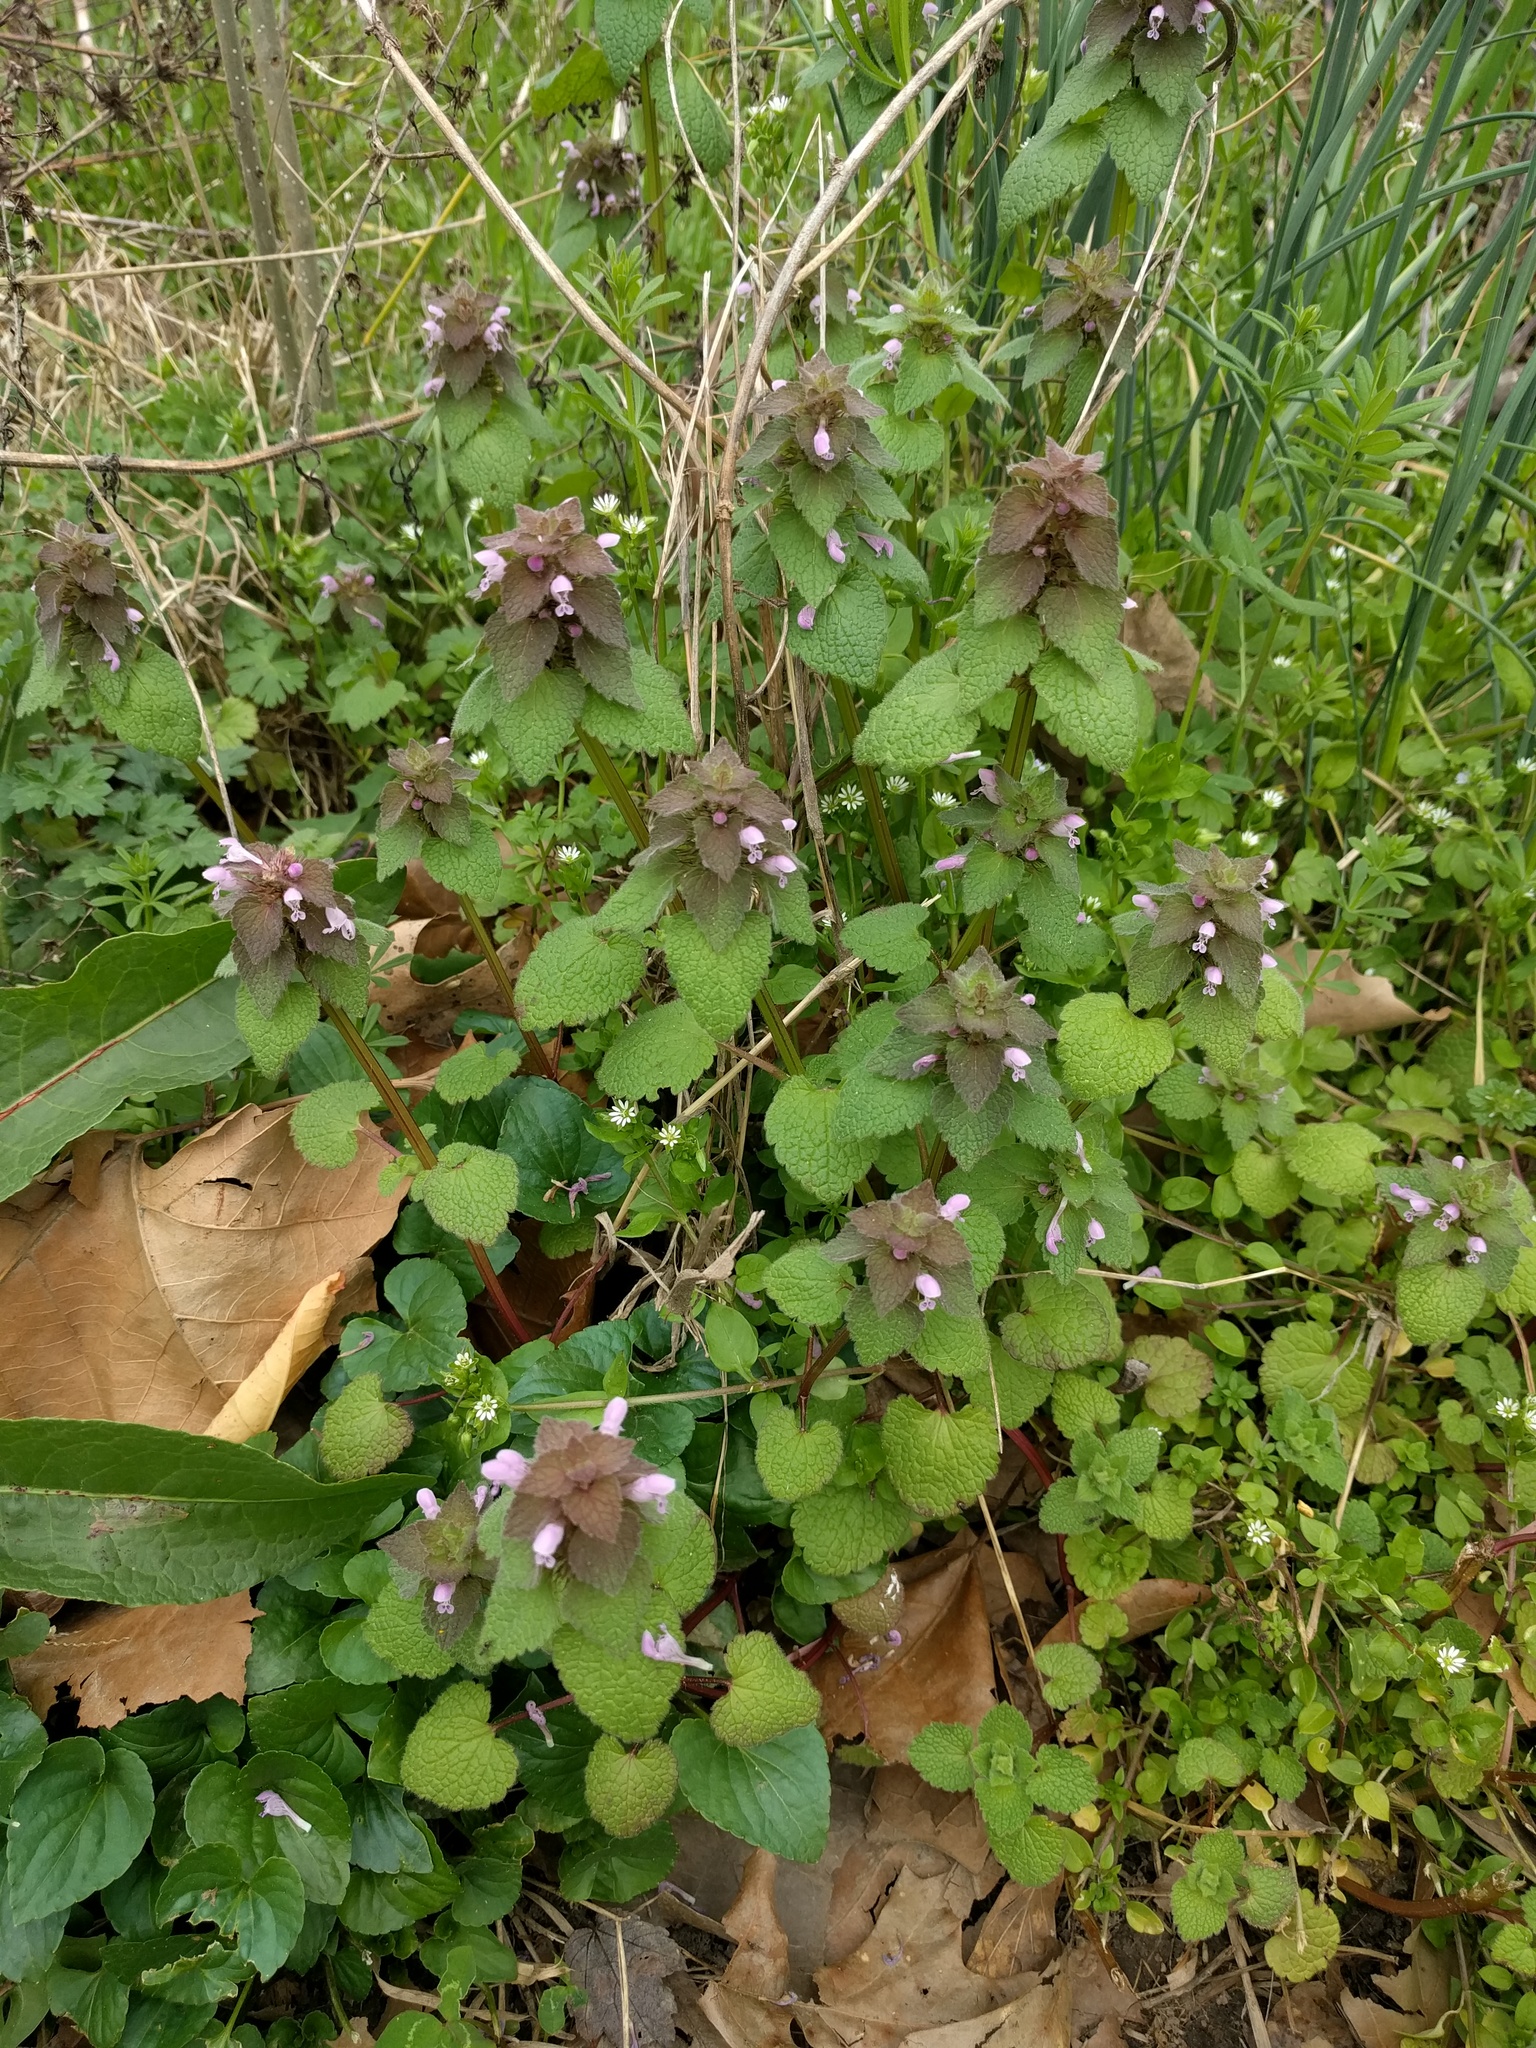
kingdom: Plantae
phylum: Tracheophyta
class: Magnoliopsida
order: Lamiales
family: Lamiaceae
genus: Lamium
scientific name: Lamium purpureum
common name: Red dead-nettle
